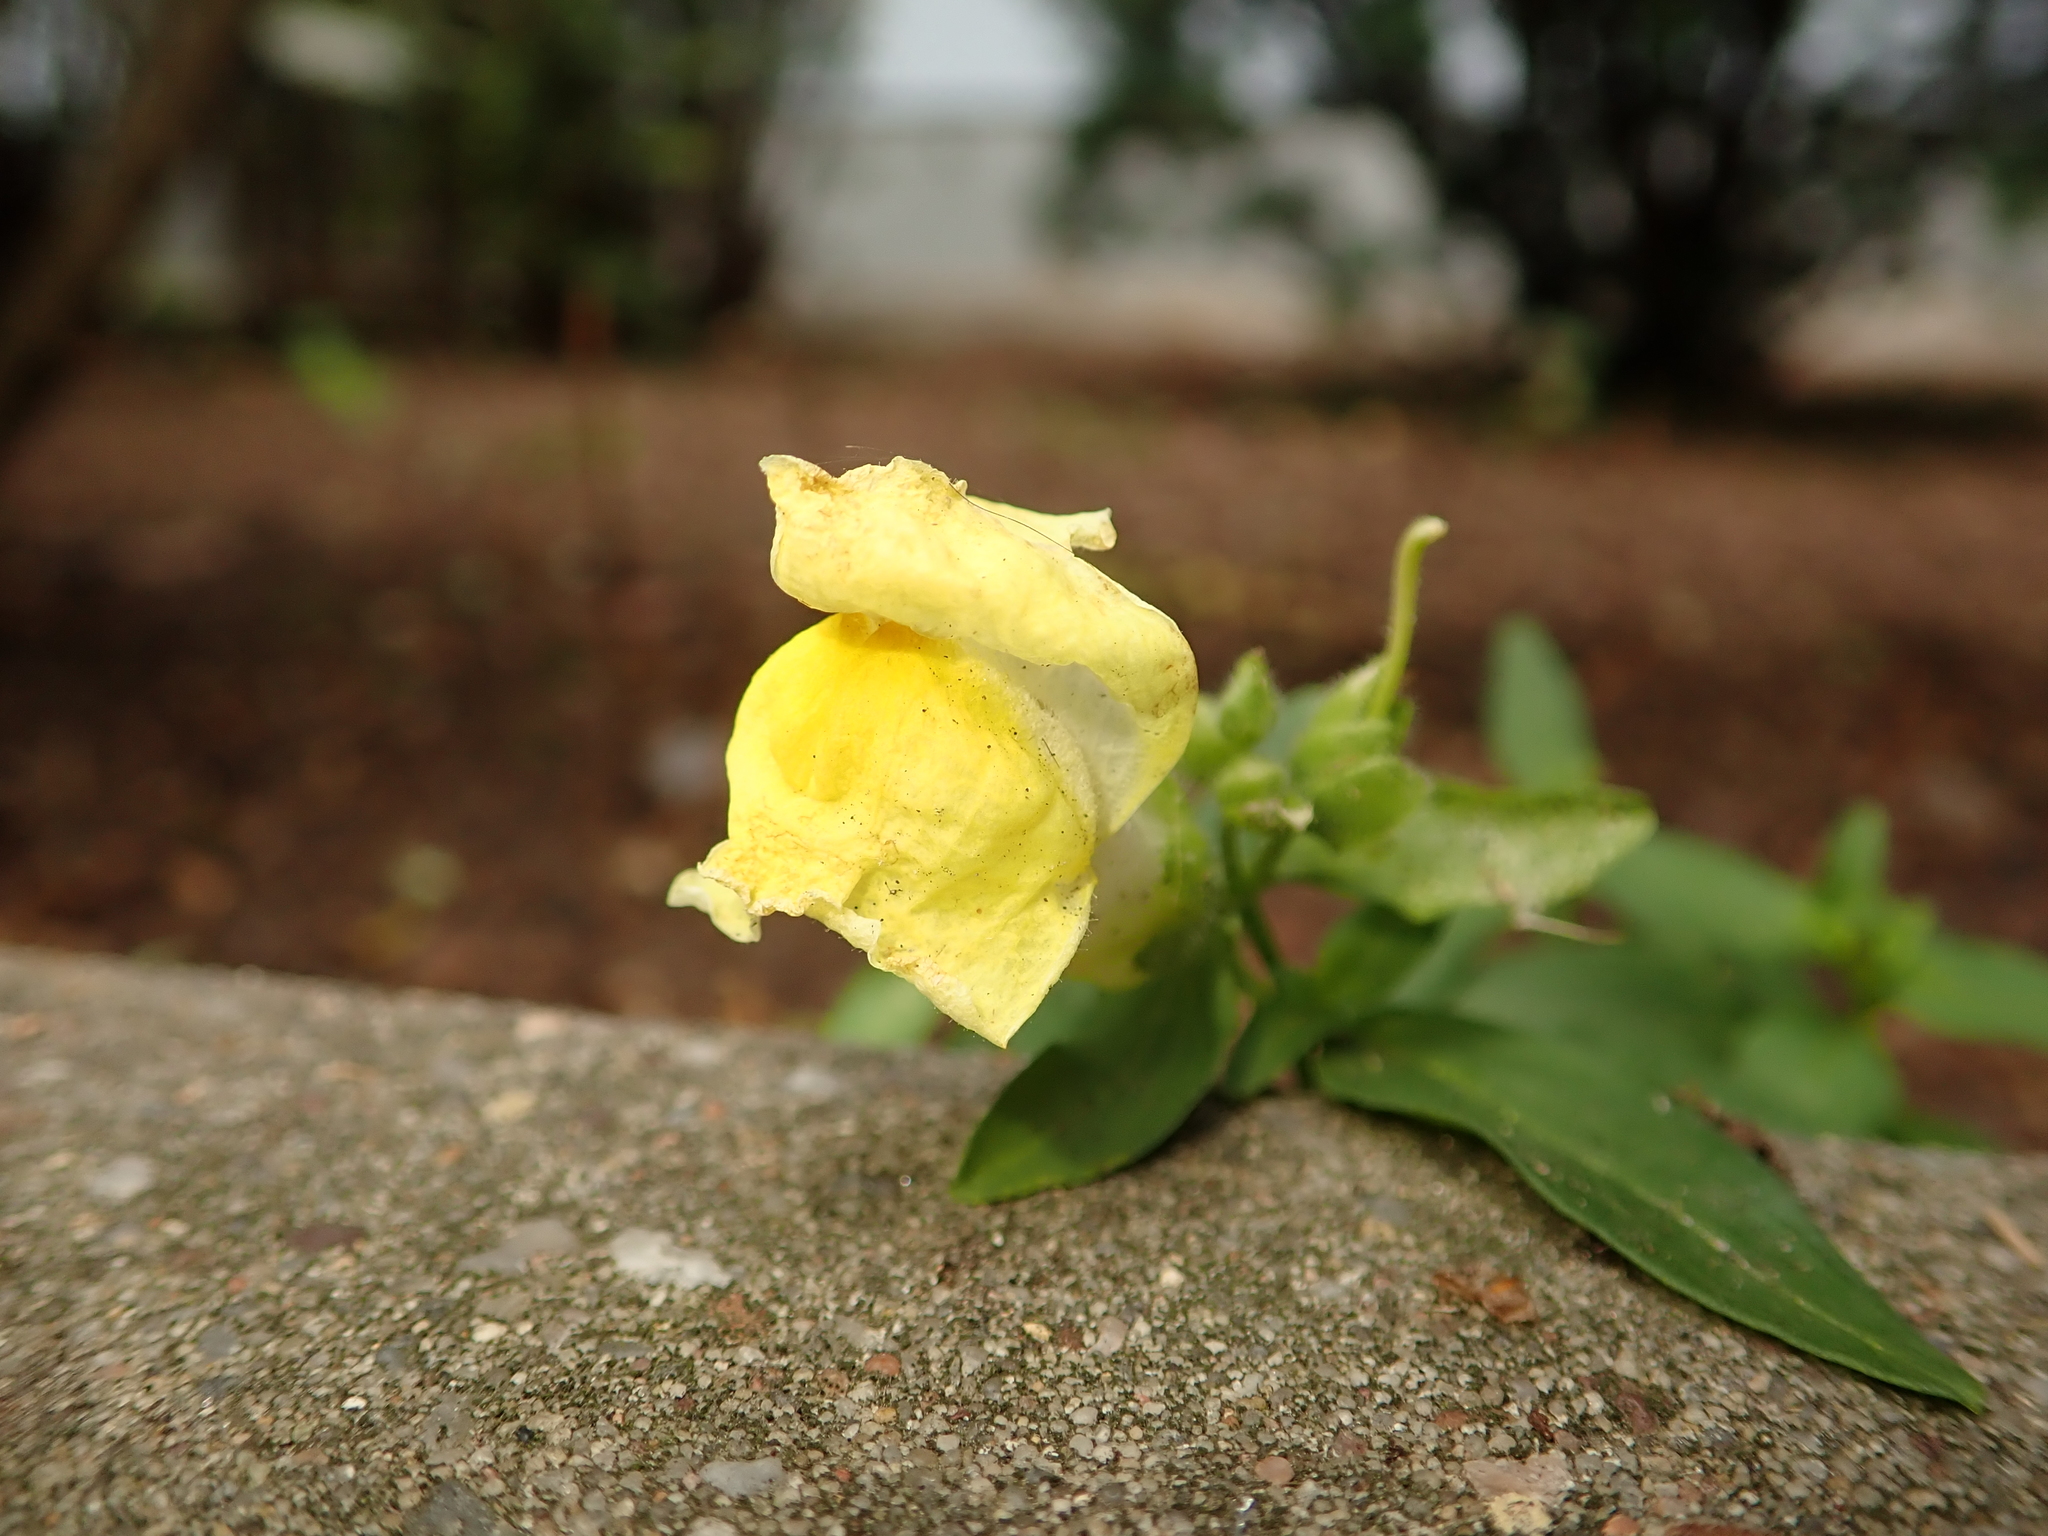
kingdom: Plantae
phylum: Tracheophyta
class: Magnoliopsida
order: Lamiales
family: Plantaginaceae
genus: Antirrhinum
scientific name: Antirrhinum majus
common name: Snapdragon
